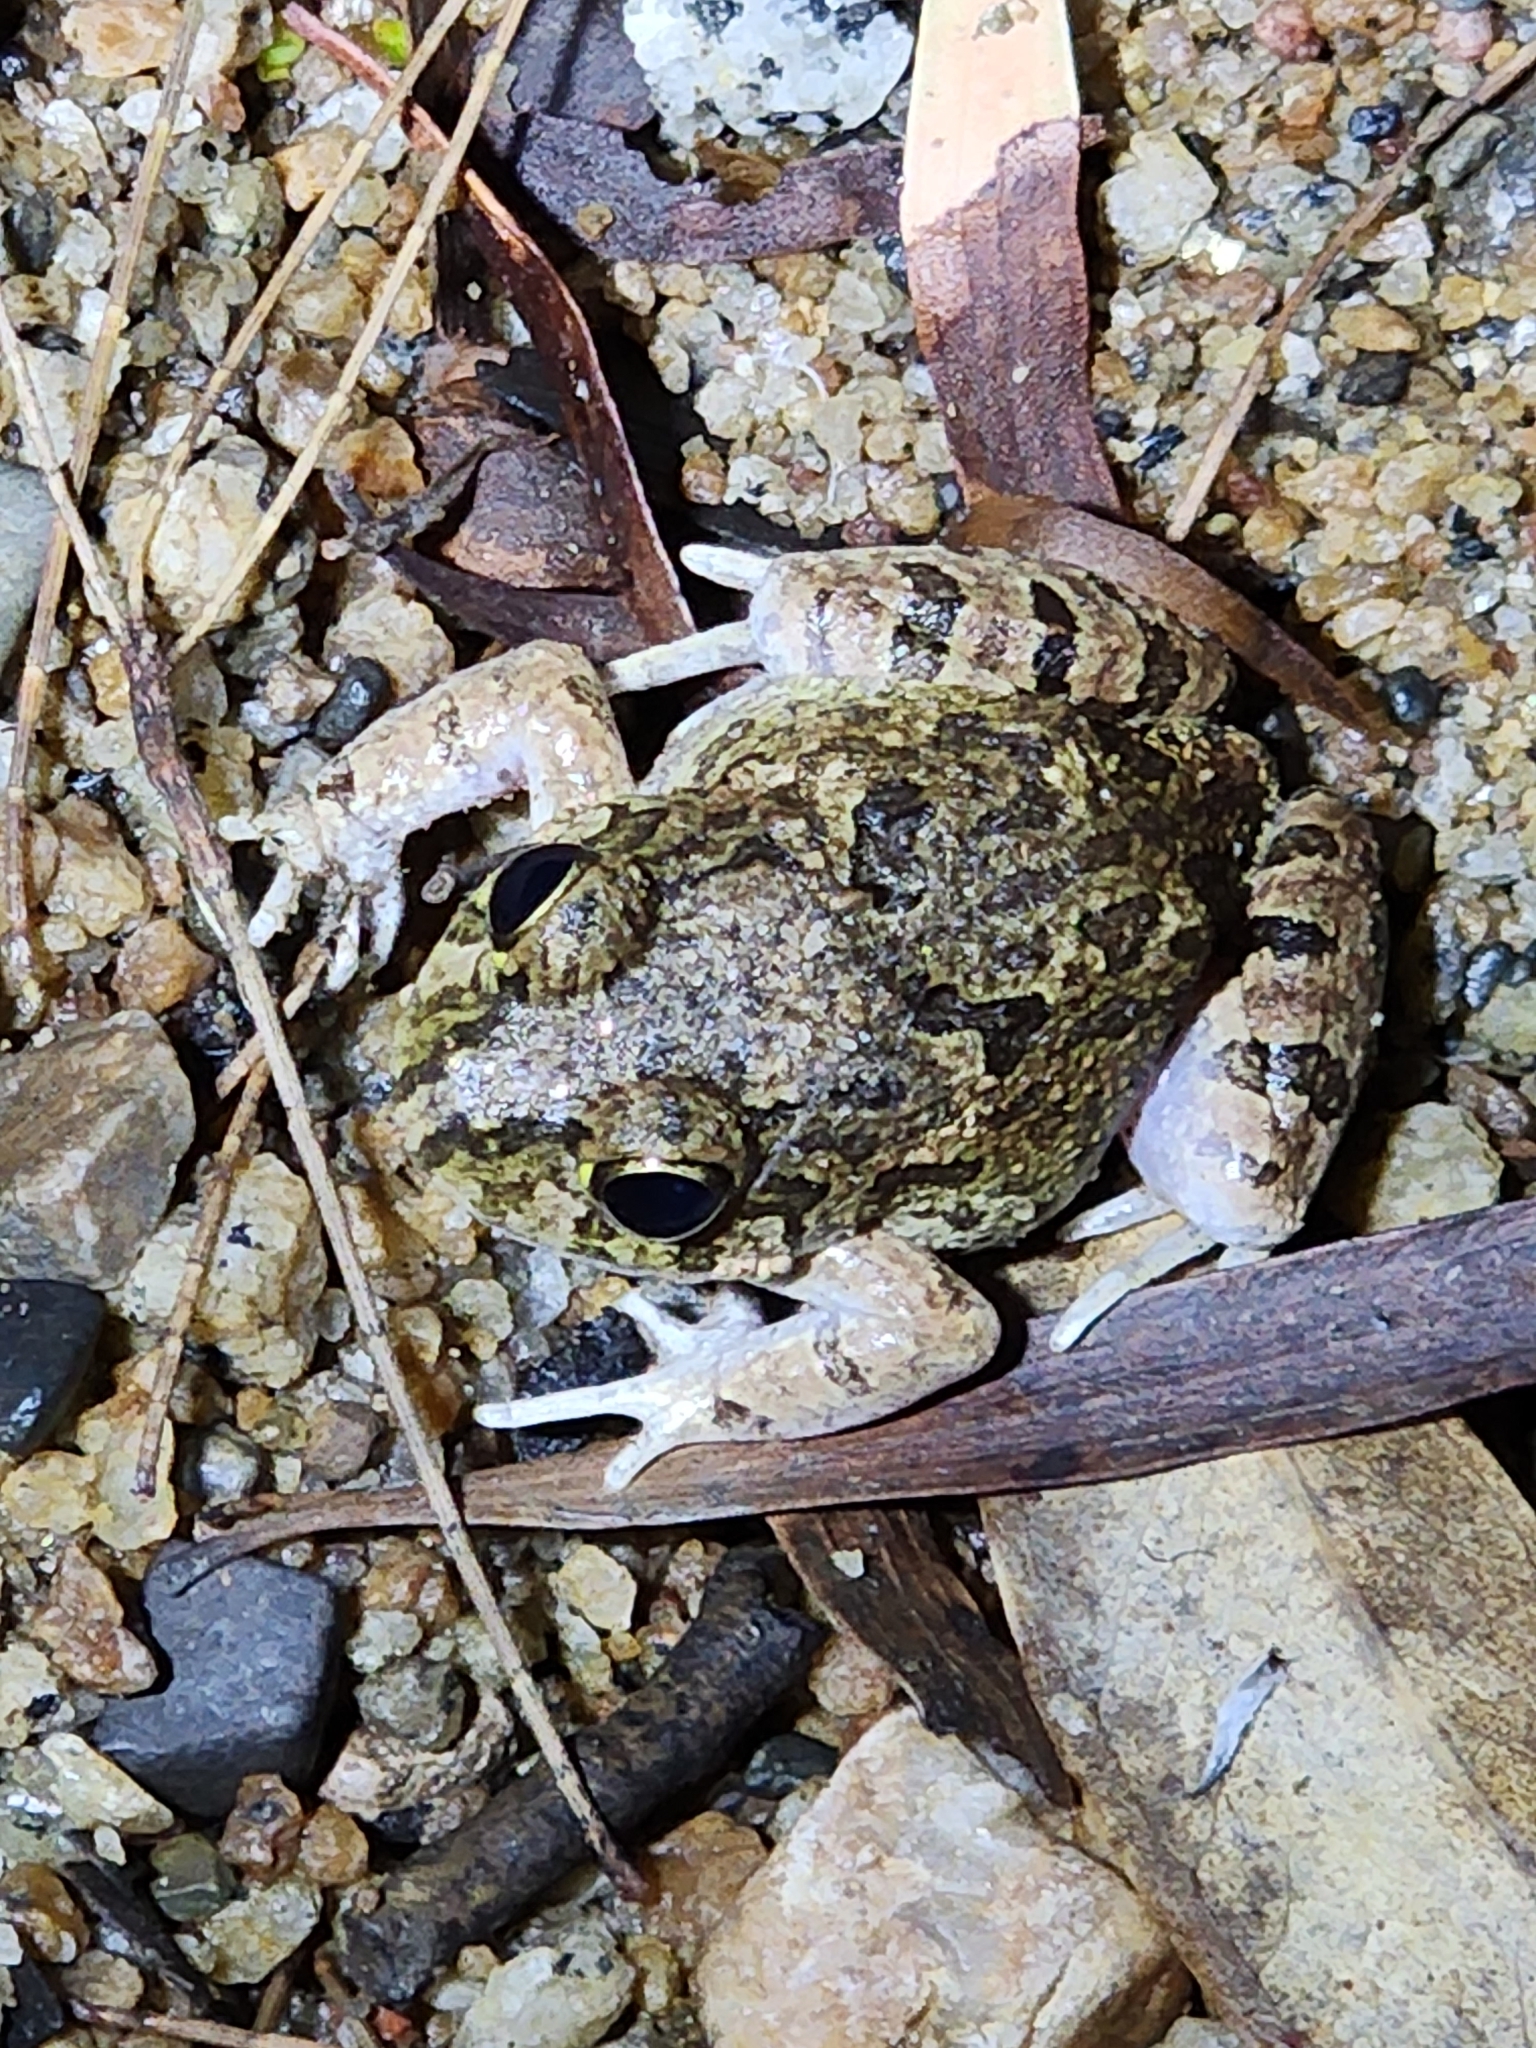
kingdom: Animalia
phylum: Chordata
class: Amphibia
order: Anura
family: Limnodynastidae
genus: Platyplectrum
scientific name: Platyplectrum ornatum
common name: Ornate burrowing frog
